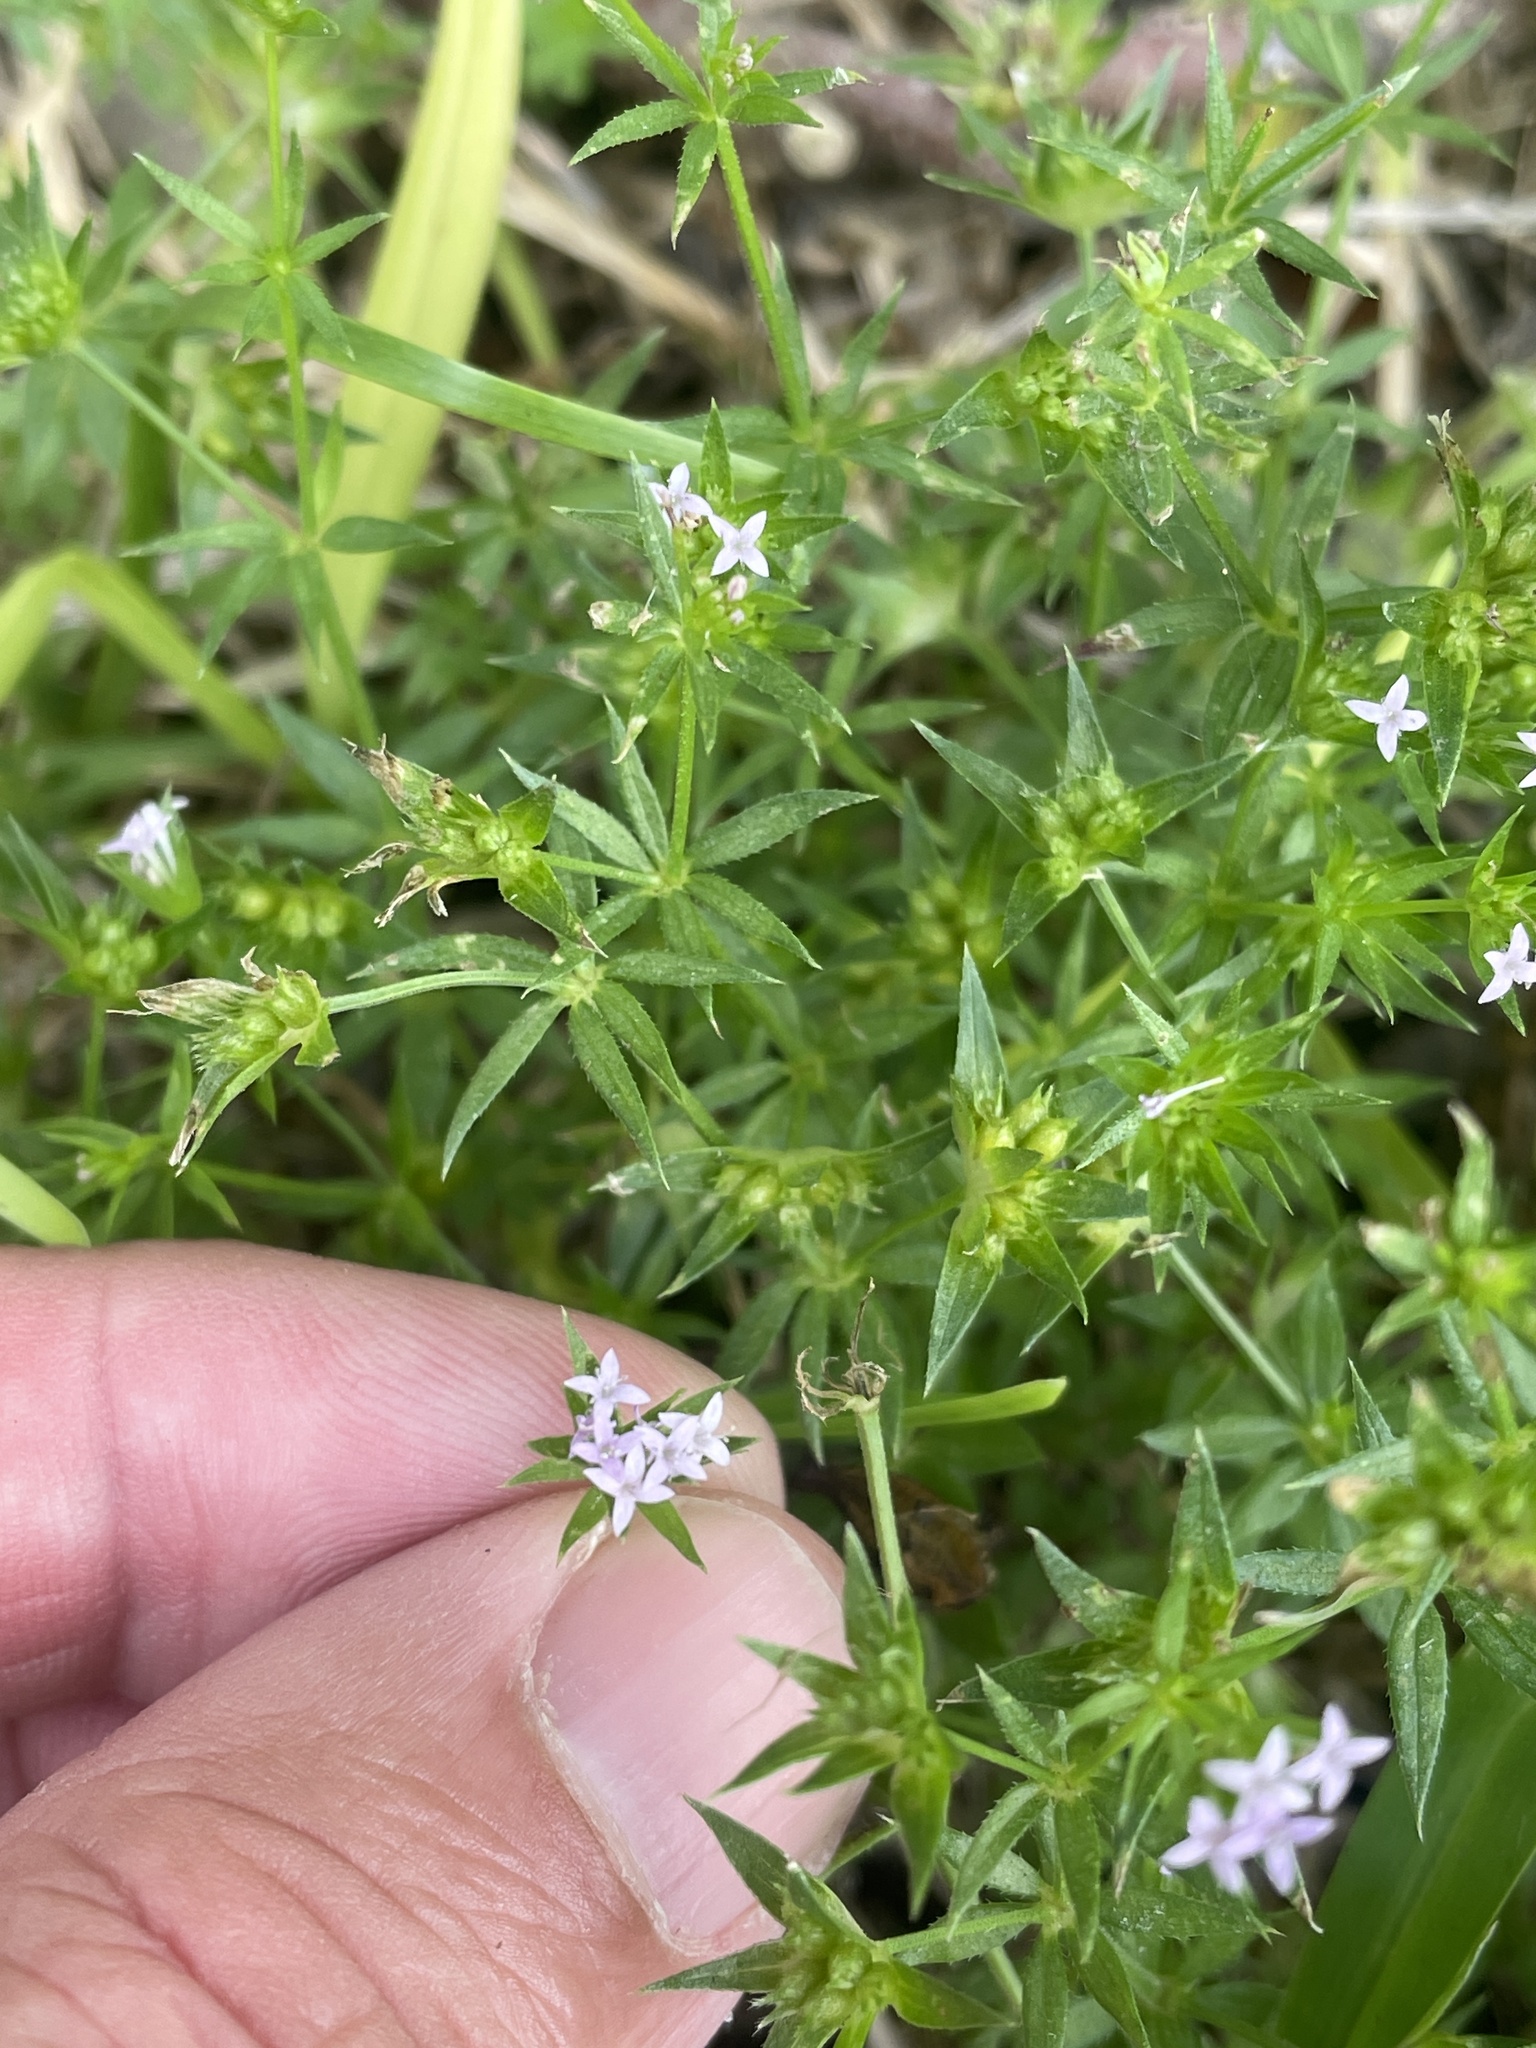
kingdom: Plantae
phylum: Tracheophyta
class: Magnoliopsida
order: Gentianales
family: Rubiaceae
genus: Sherardia
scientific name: Sherardia arvensis
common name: Field madder
